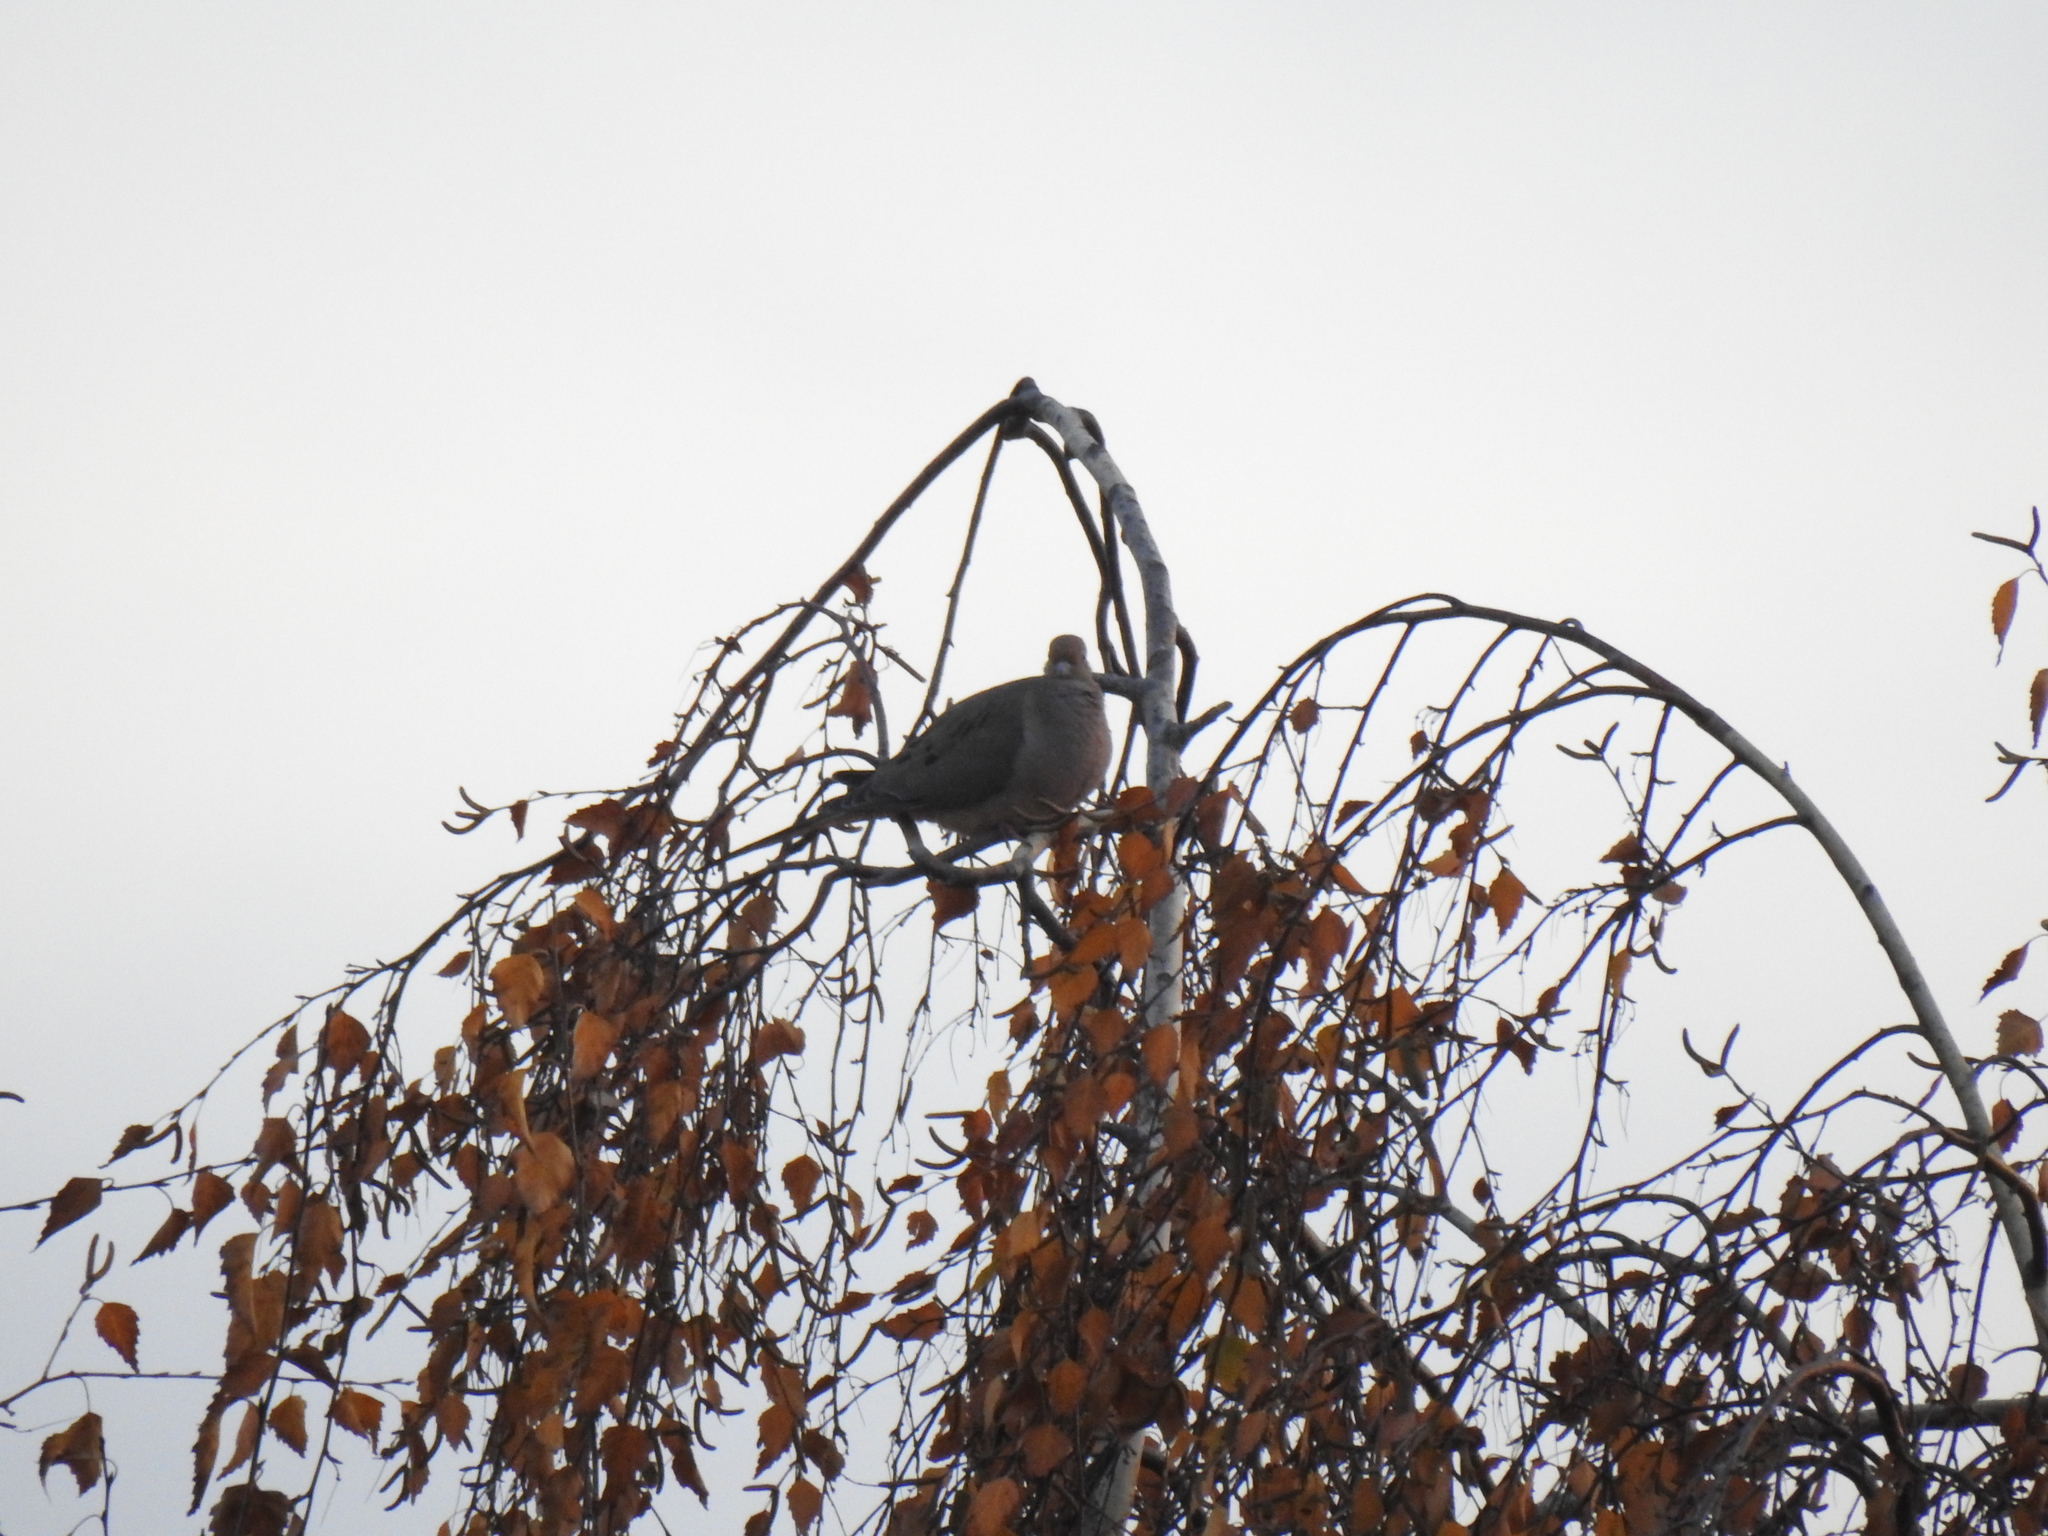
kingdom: Animalia
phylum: Chordata
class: Aves
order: Columbiformes
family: Columbidae
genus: Zenaida
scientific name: Zenaida macroura
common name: Mourning dove
